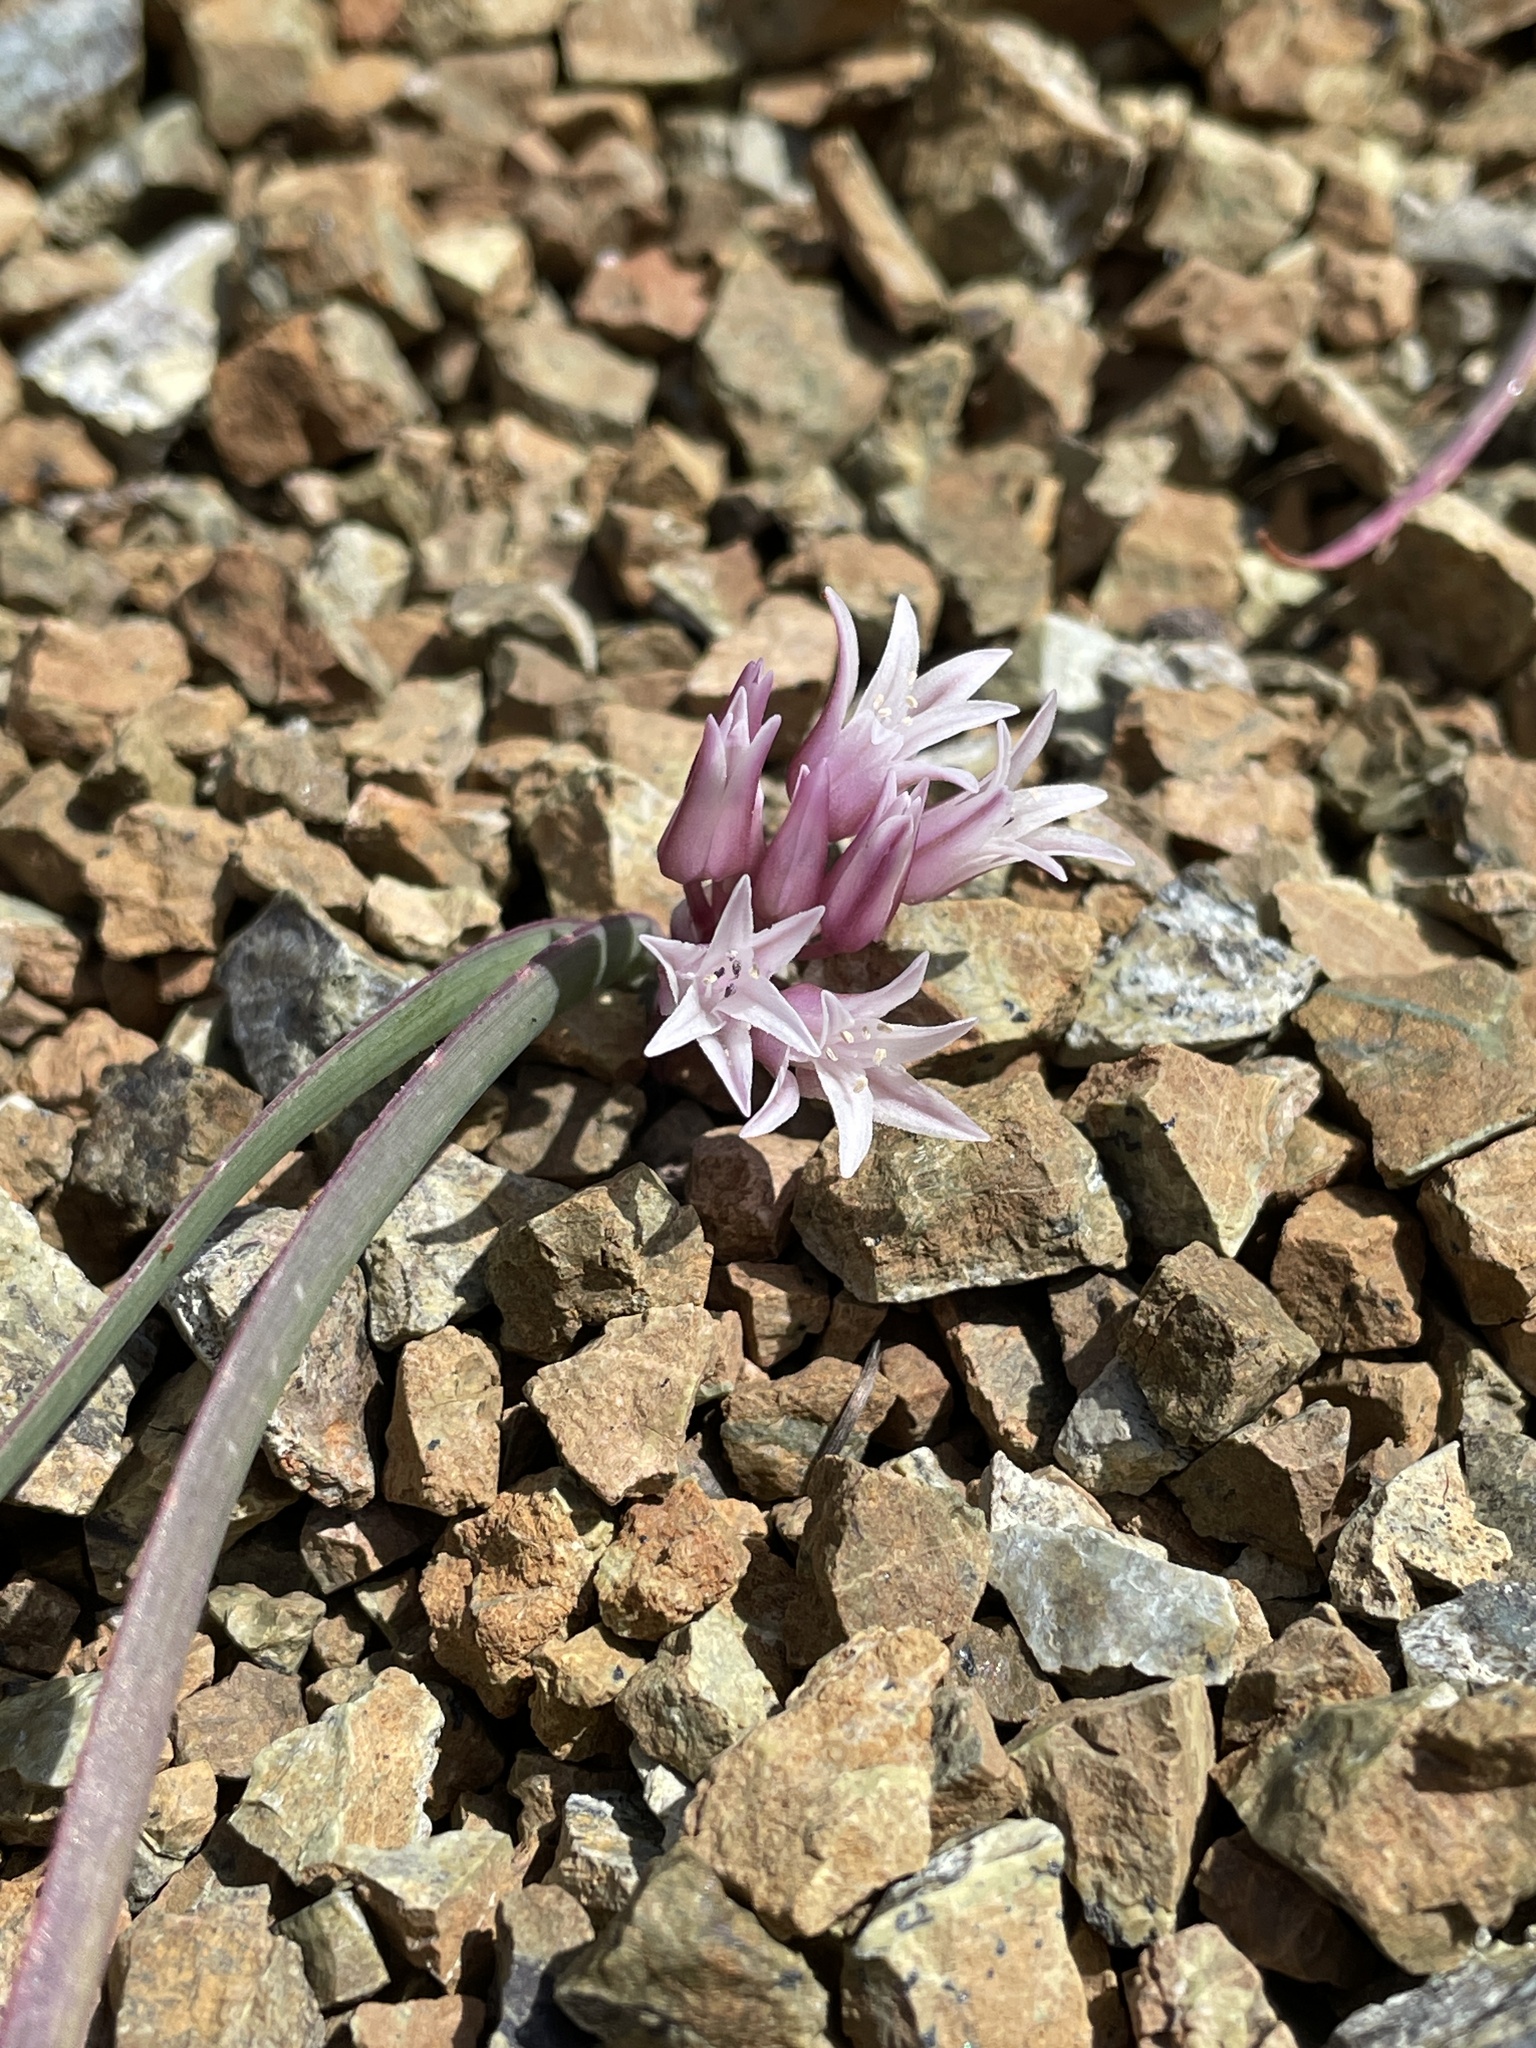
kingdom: Plantae
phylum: Tracheophyta
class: Liliopsida
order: Asparagales
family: Amaryllidaceae
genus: Allium
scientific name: Allium falcifolium
